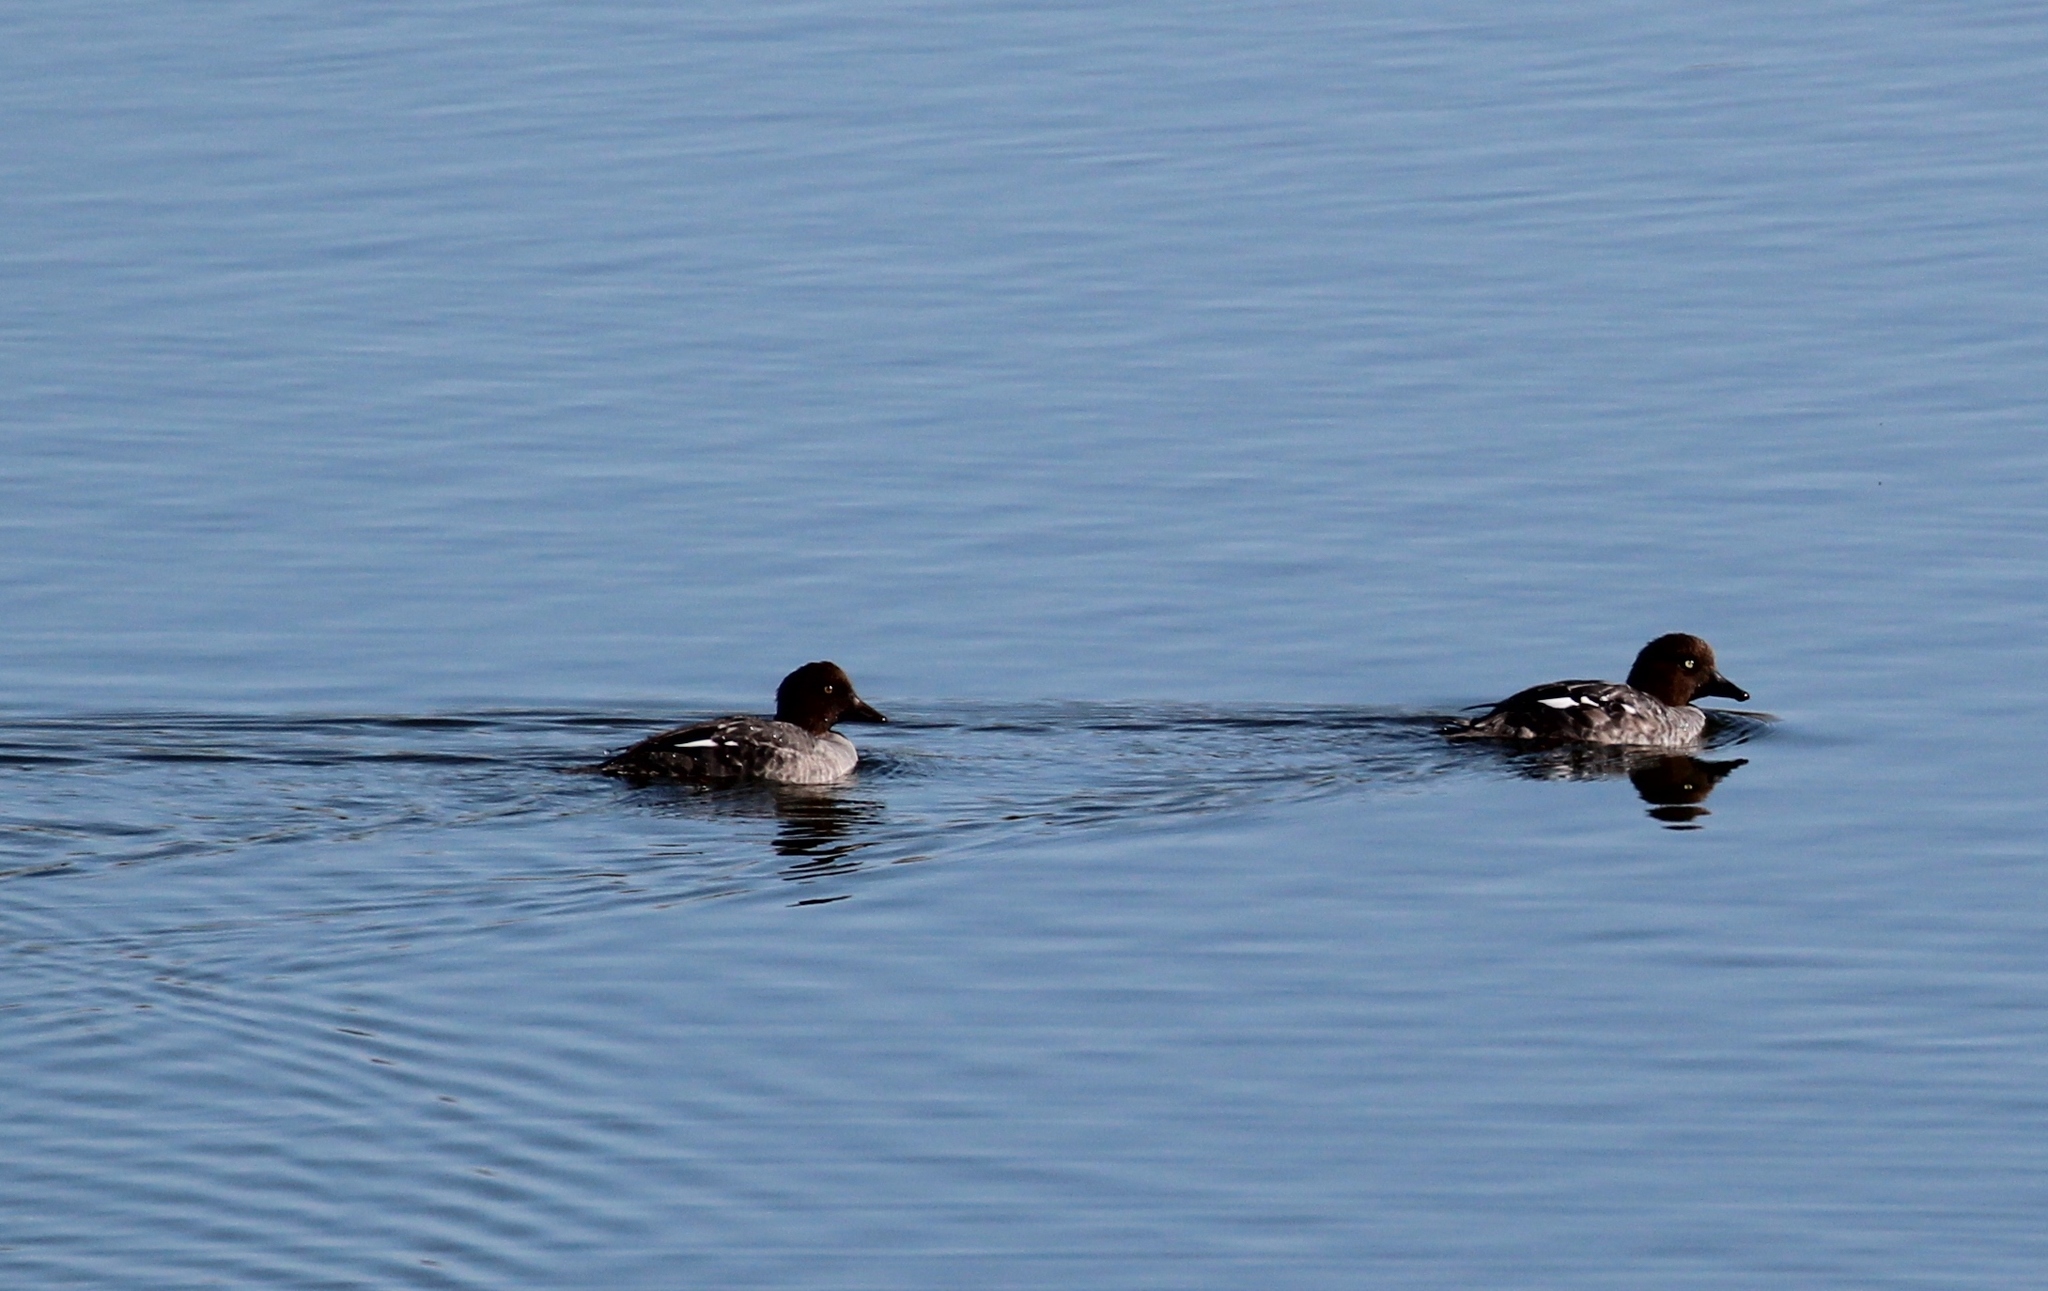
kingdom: Animalia
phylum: Chordata
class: Aves
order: Anseriformes
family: Anatidae
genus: Bucephala
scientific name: Bucephala clangula
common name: Common goldeneye
